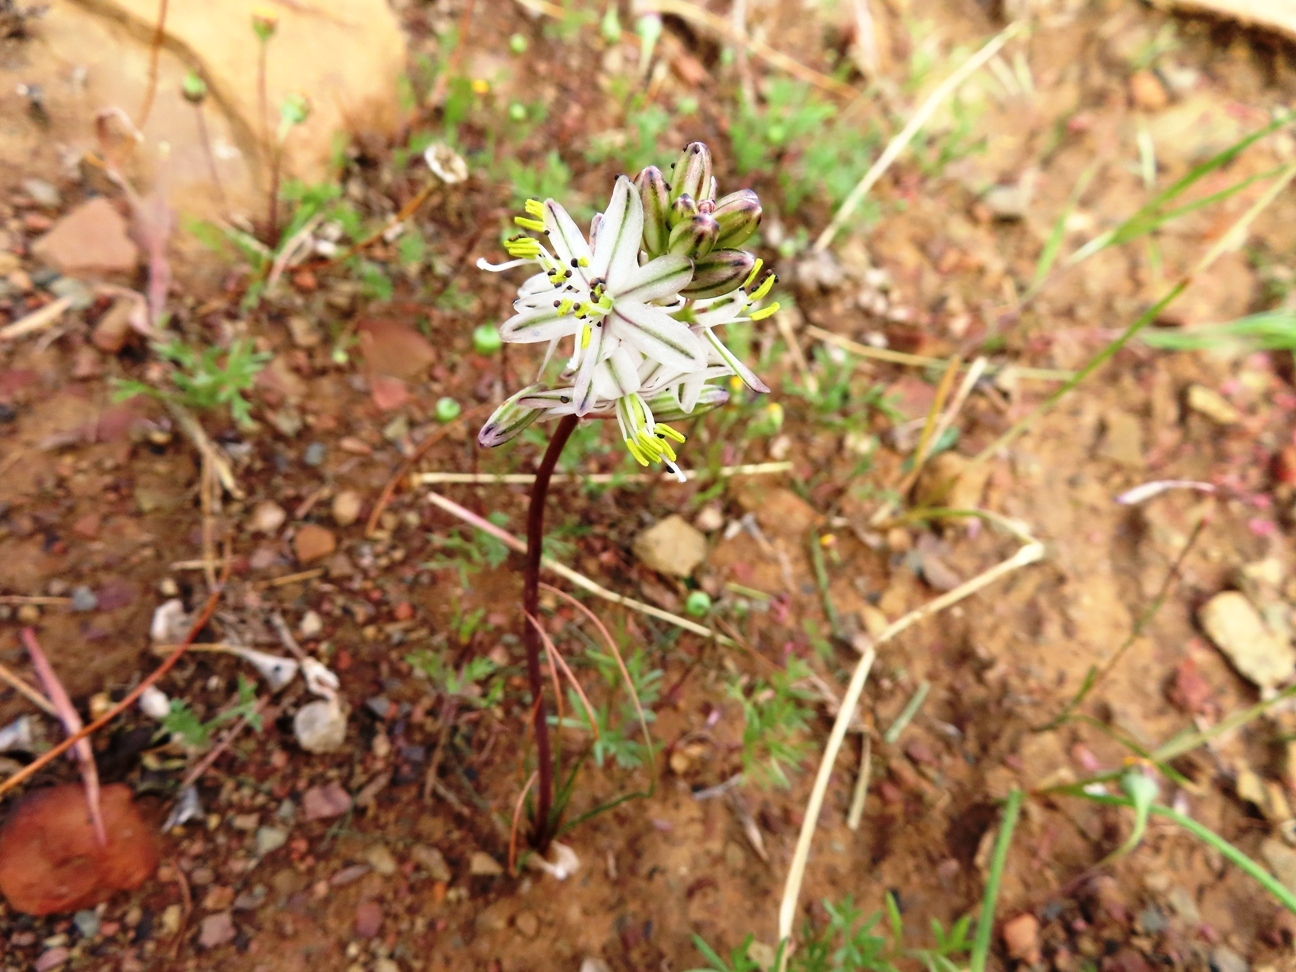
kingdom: Plantae
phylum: Tracheophyta
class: Liliopsida
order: Asparagales
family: Asparagaceae
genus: Drimia
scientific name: Drimia exuviata
